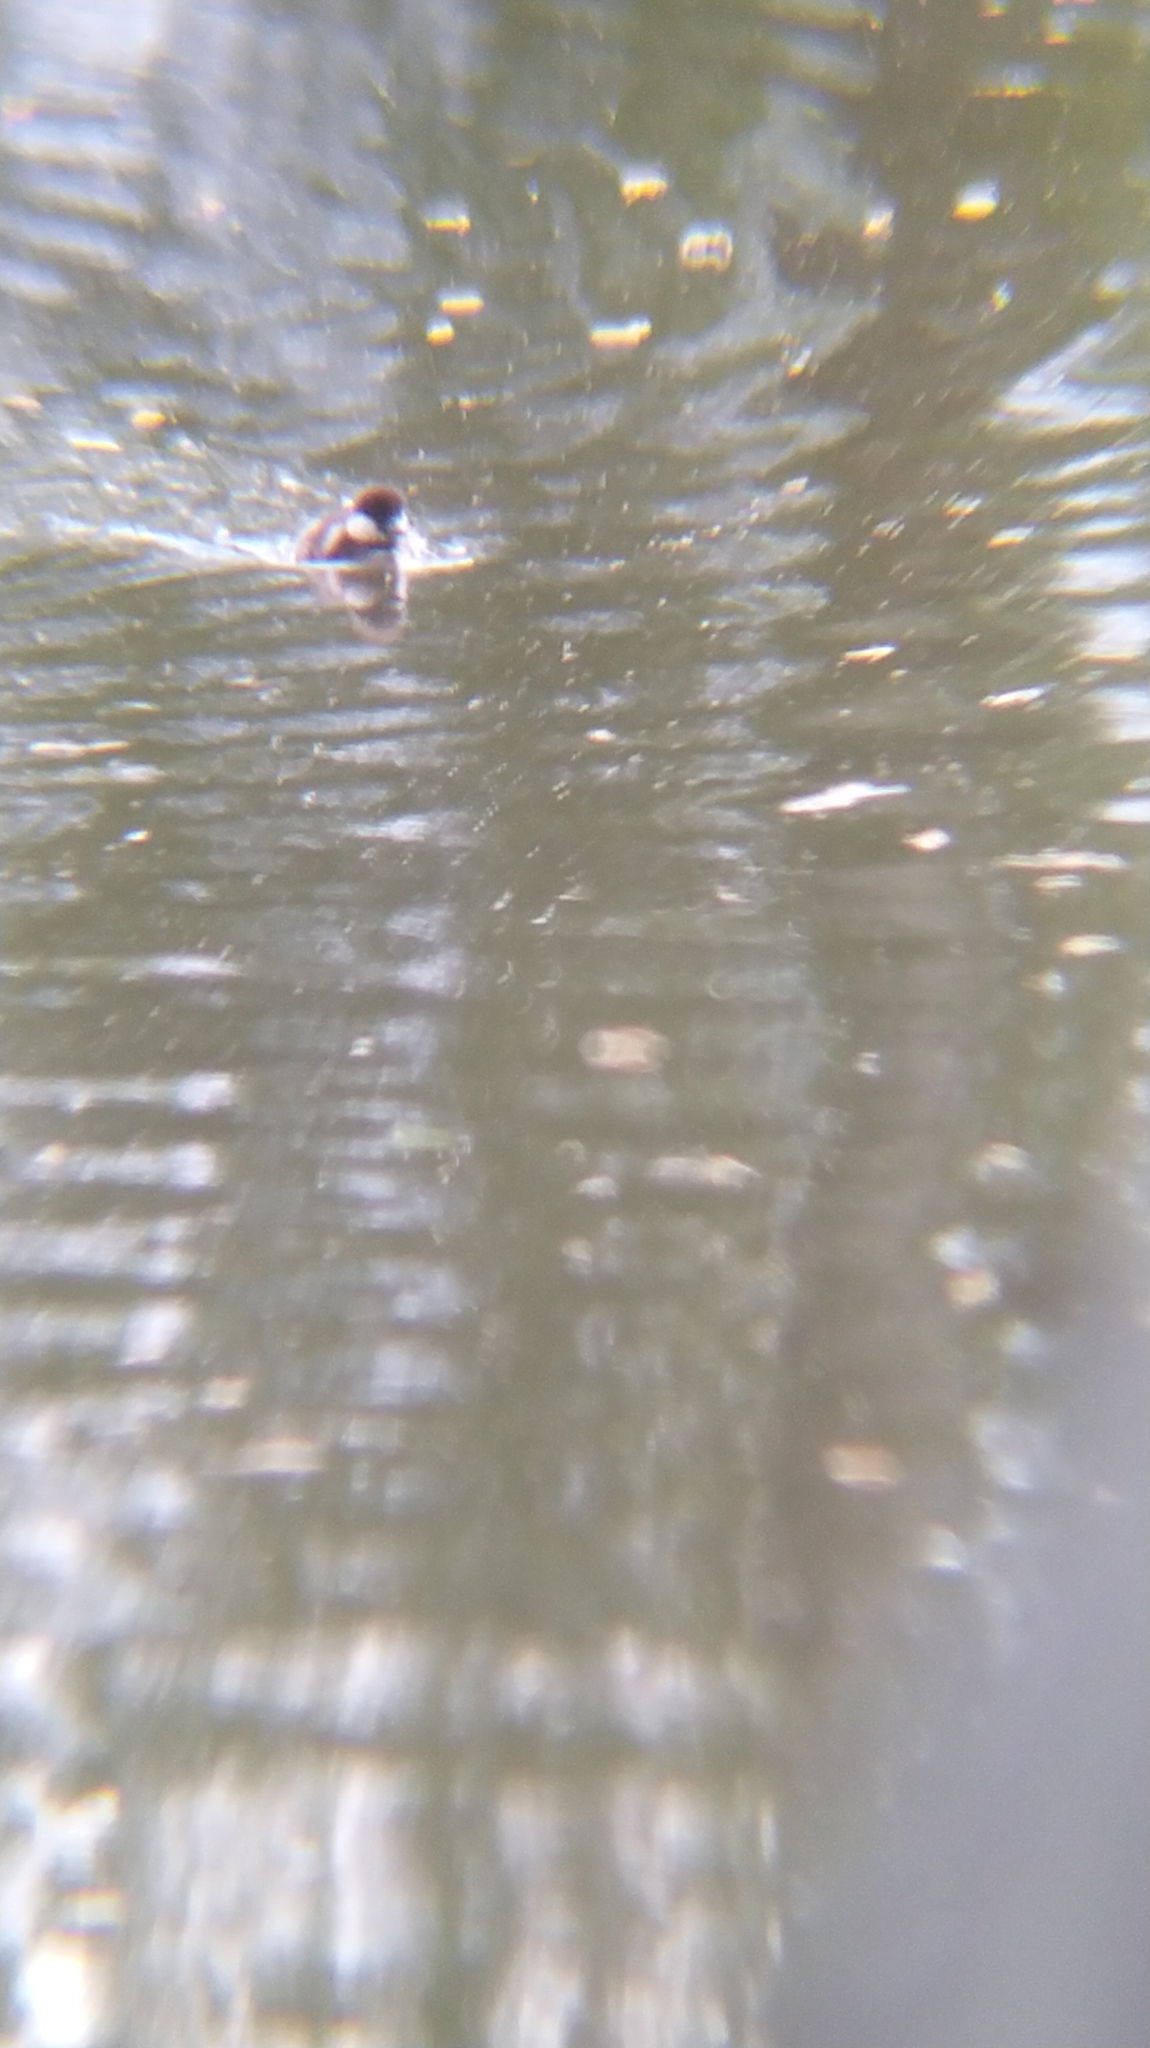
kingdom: Animalia
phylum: Chordata
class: Aves
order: Anseriformes
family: Anatidae
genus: Bucephala
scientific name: Bucephala clangula
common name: Common goldeneye
